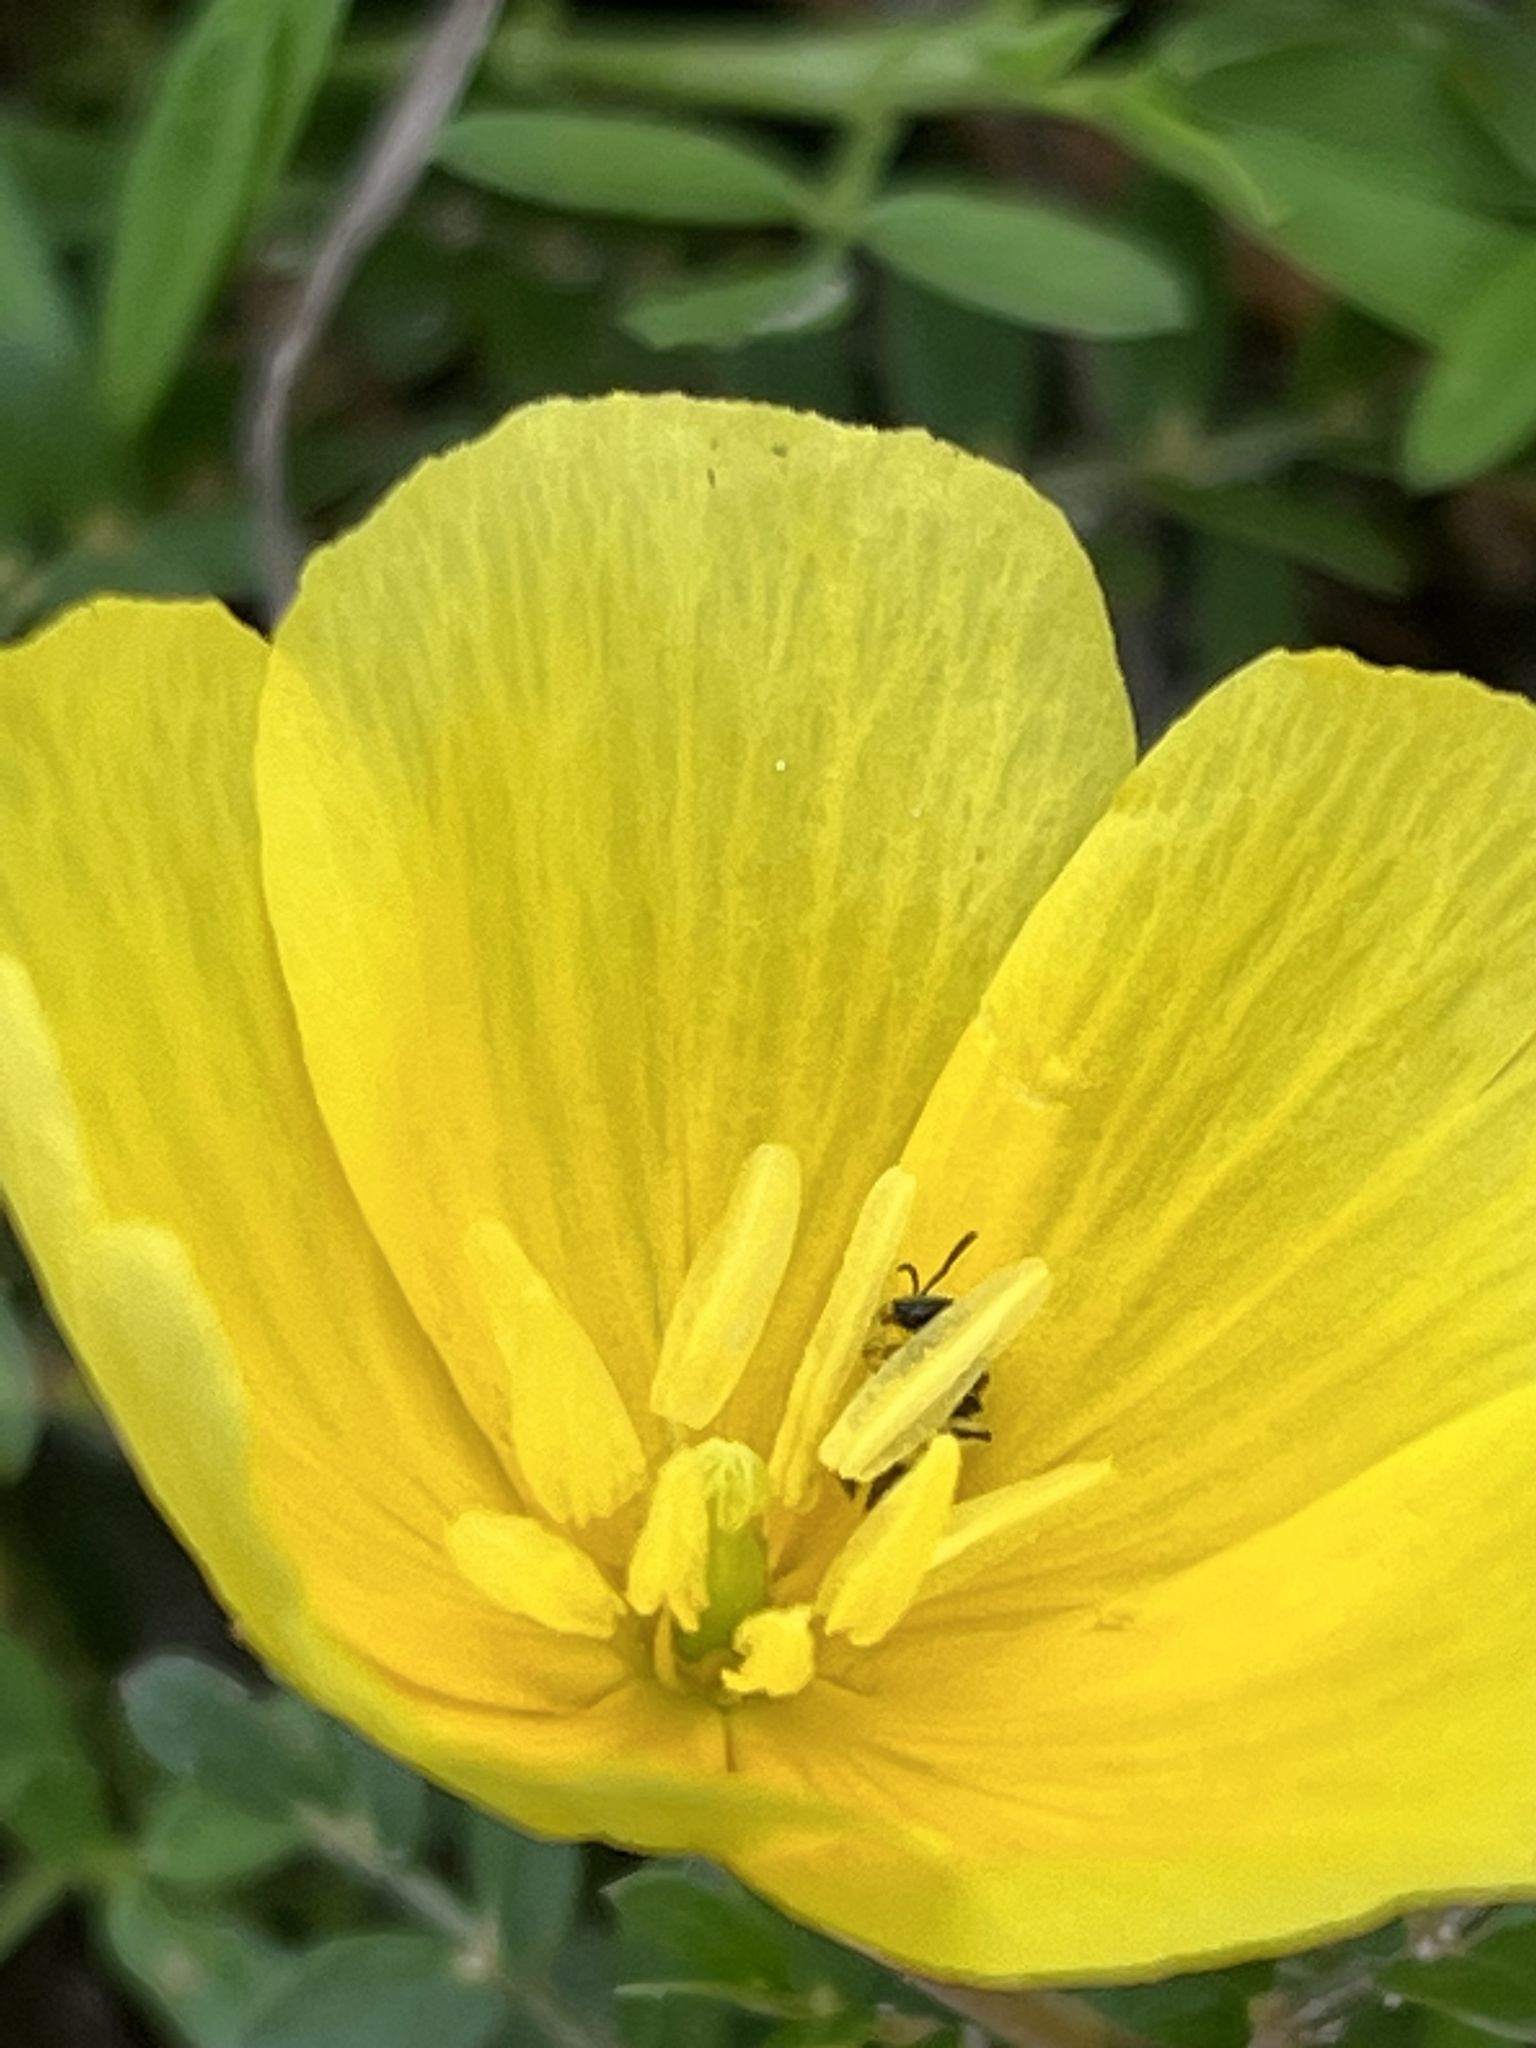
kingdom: Plantae
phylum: Tracheophyta
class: Magnoliopsida
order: Zygophyllales
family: Zygophyllaceae
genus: Tribulus
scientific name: Tribulus cistoides
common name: Jamaican feverplant
